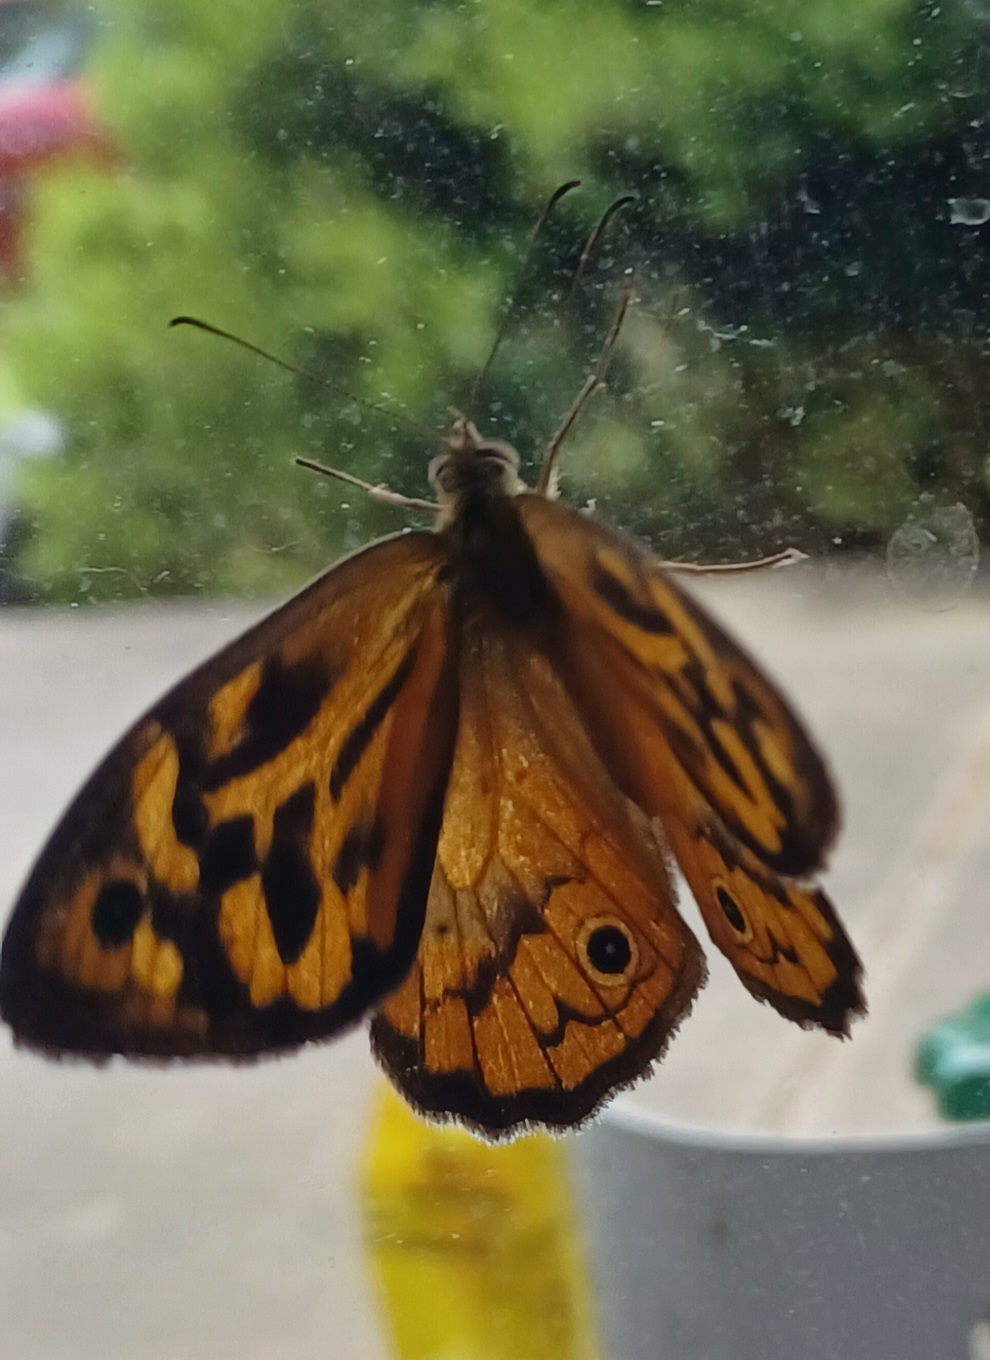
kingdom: Animalia
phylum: Arthropoda
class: Insecta
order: Lepidoptera
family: Nymphalidae
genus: Heteronympha
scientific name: Heteronympha merope
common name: Common brown
